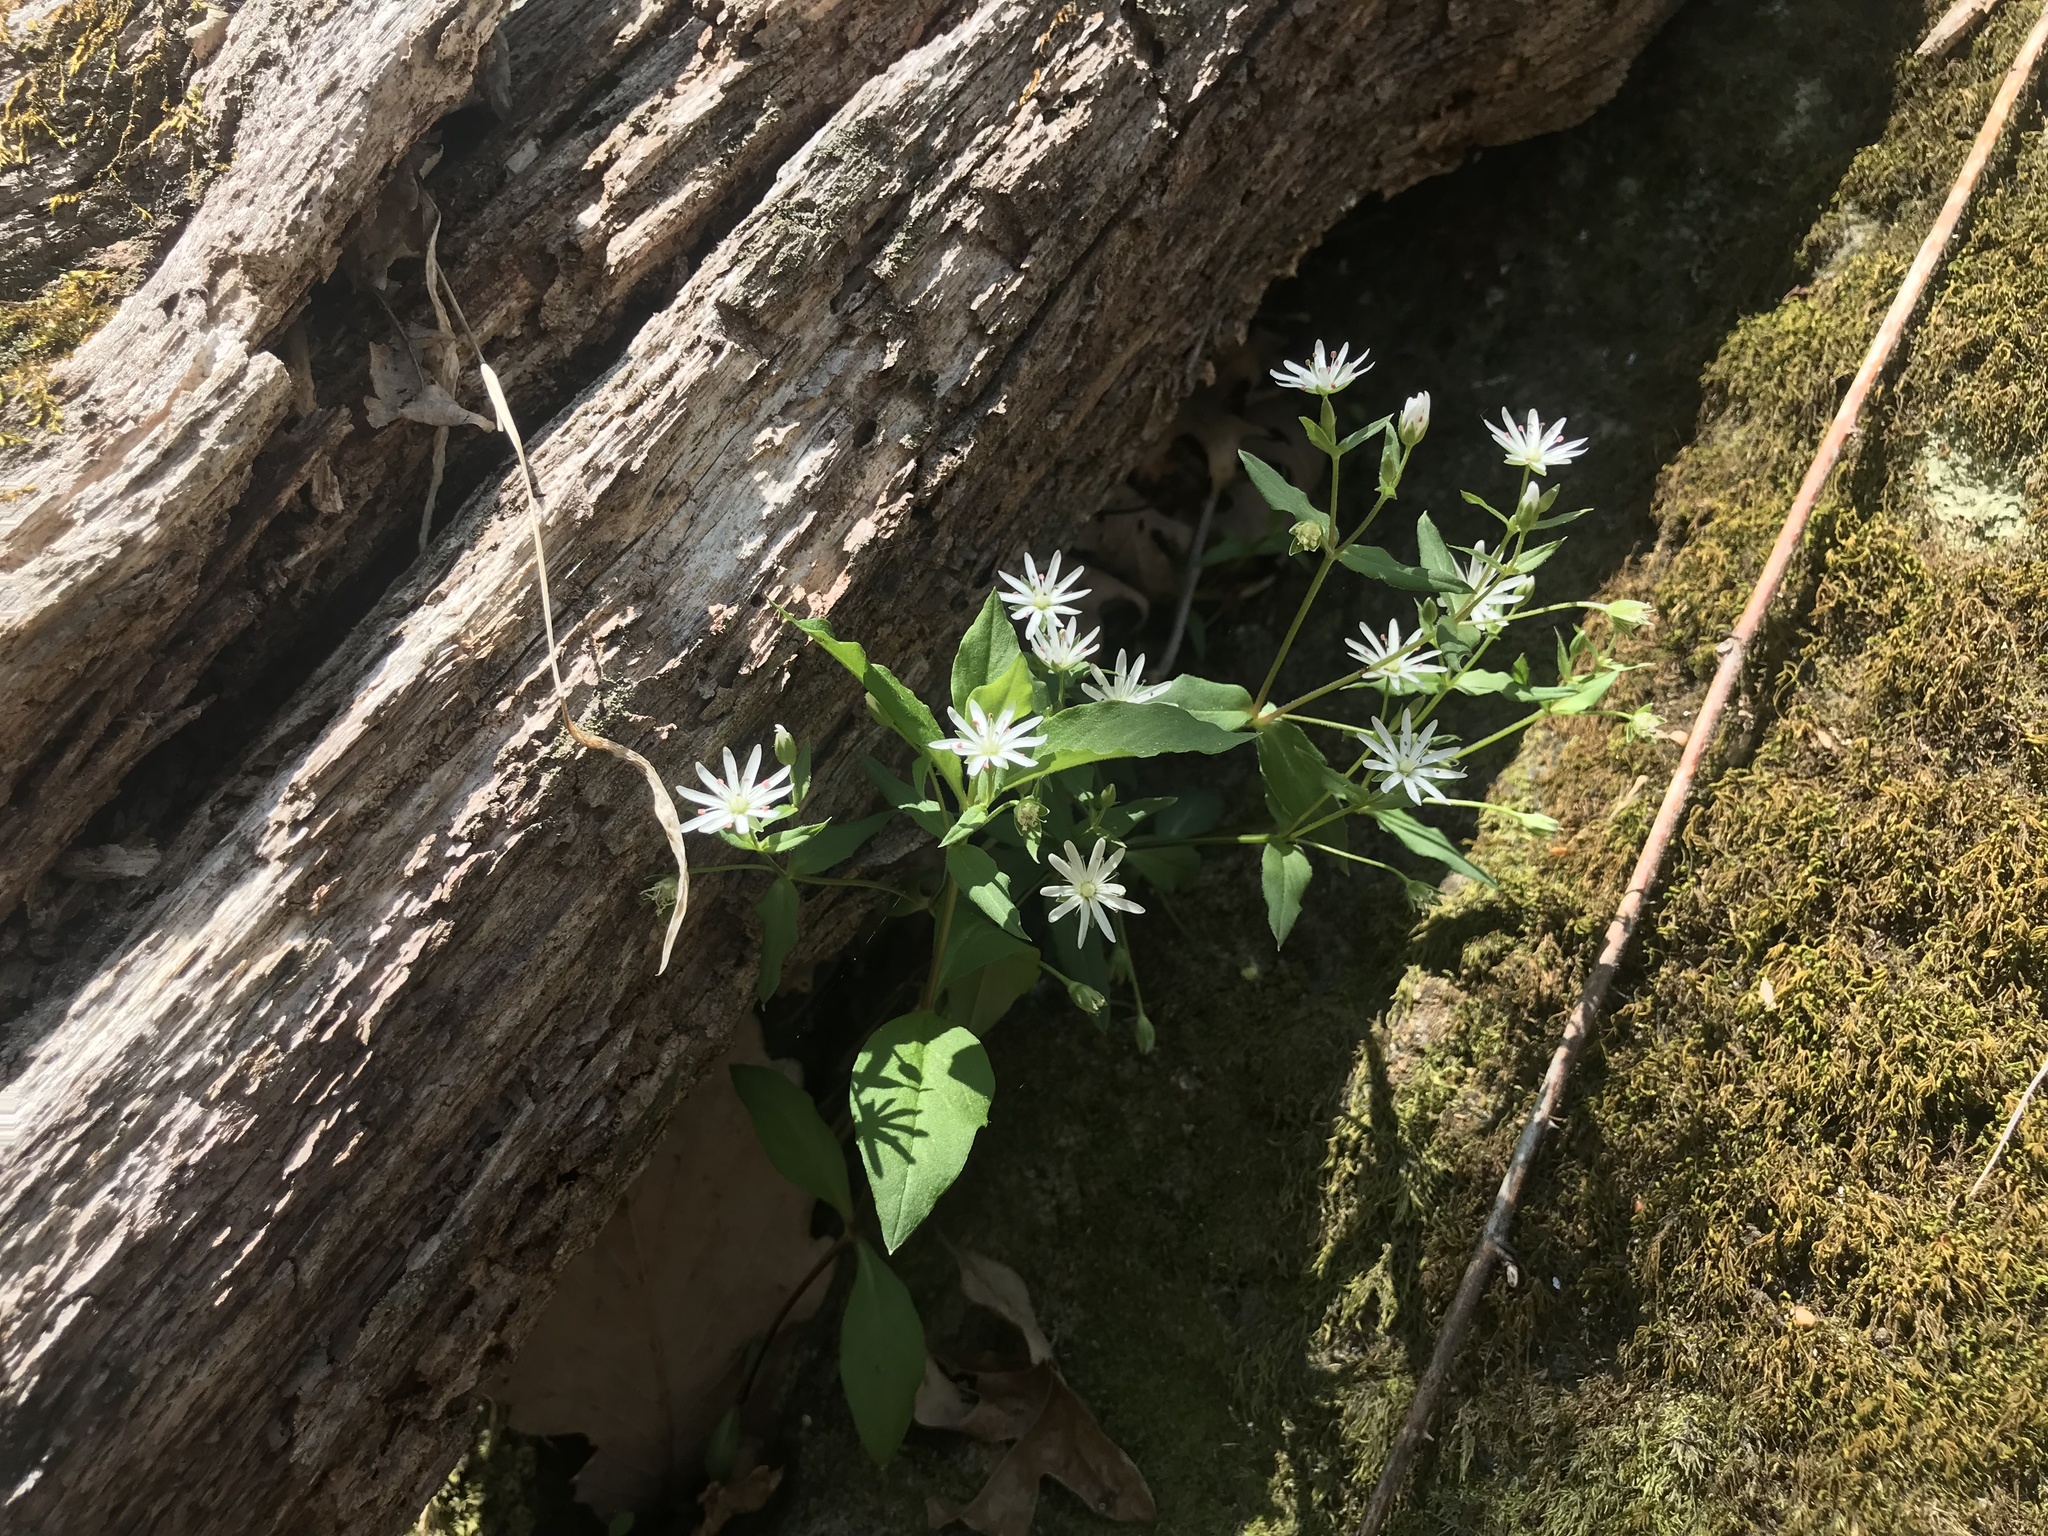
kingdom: Plantae
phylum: Tracheophyta
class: Magnoliopsida
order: Caryophyllales
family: Caryophyllaceae
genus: Stellaria
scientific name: Stellaria pubera
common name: Star chickweed
